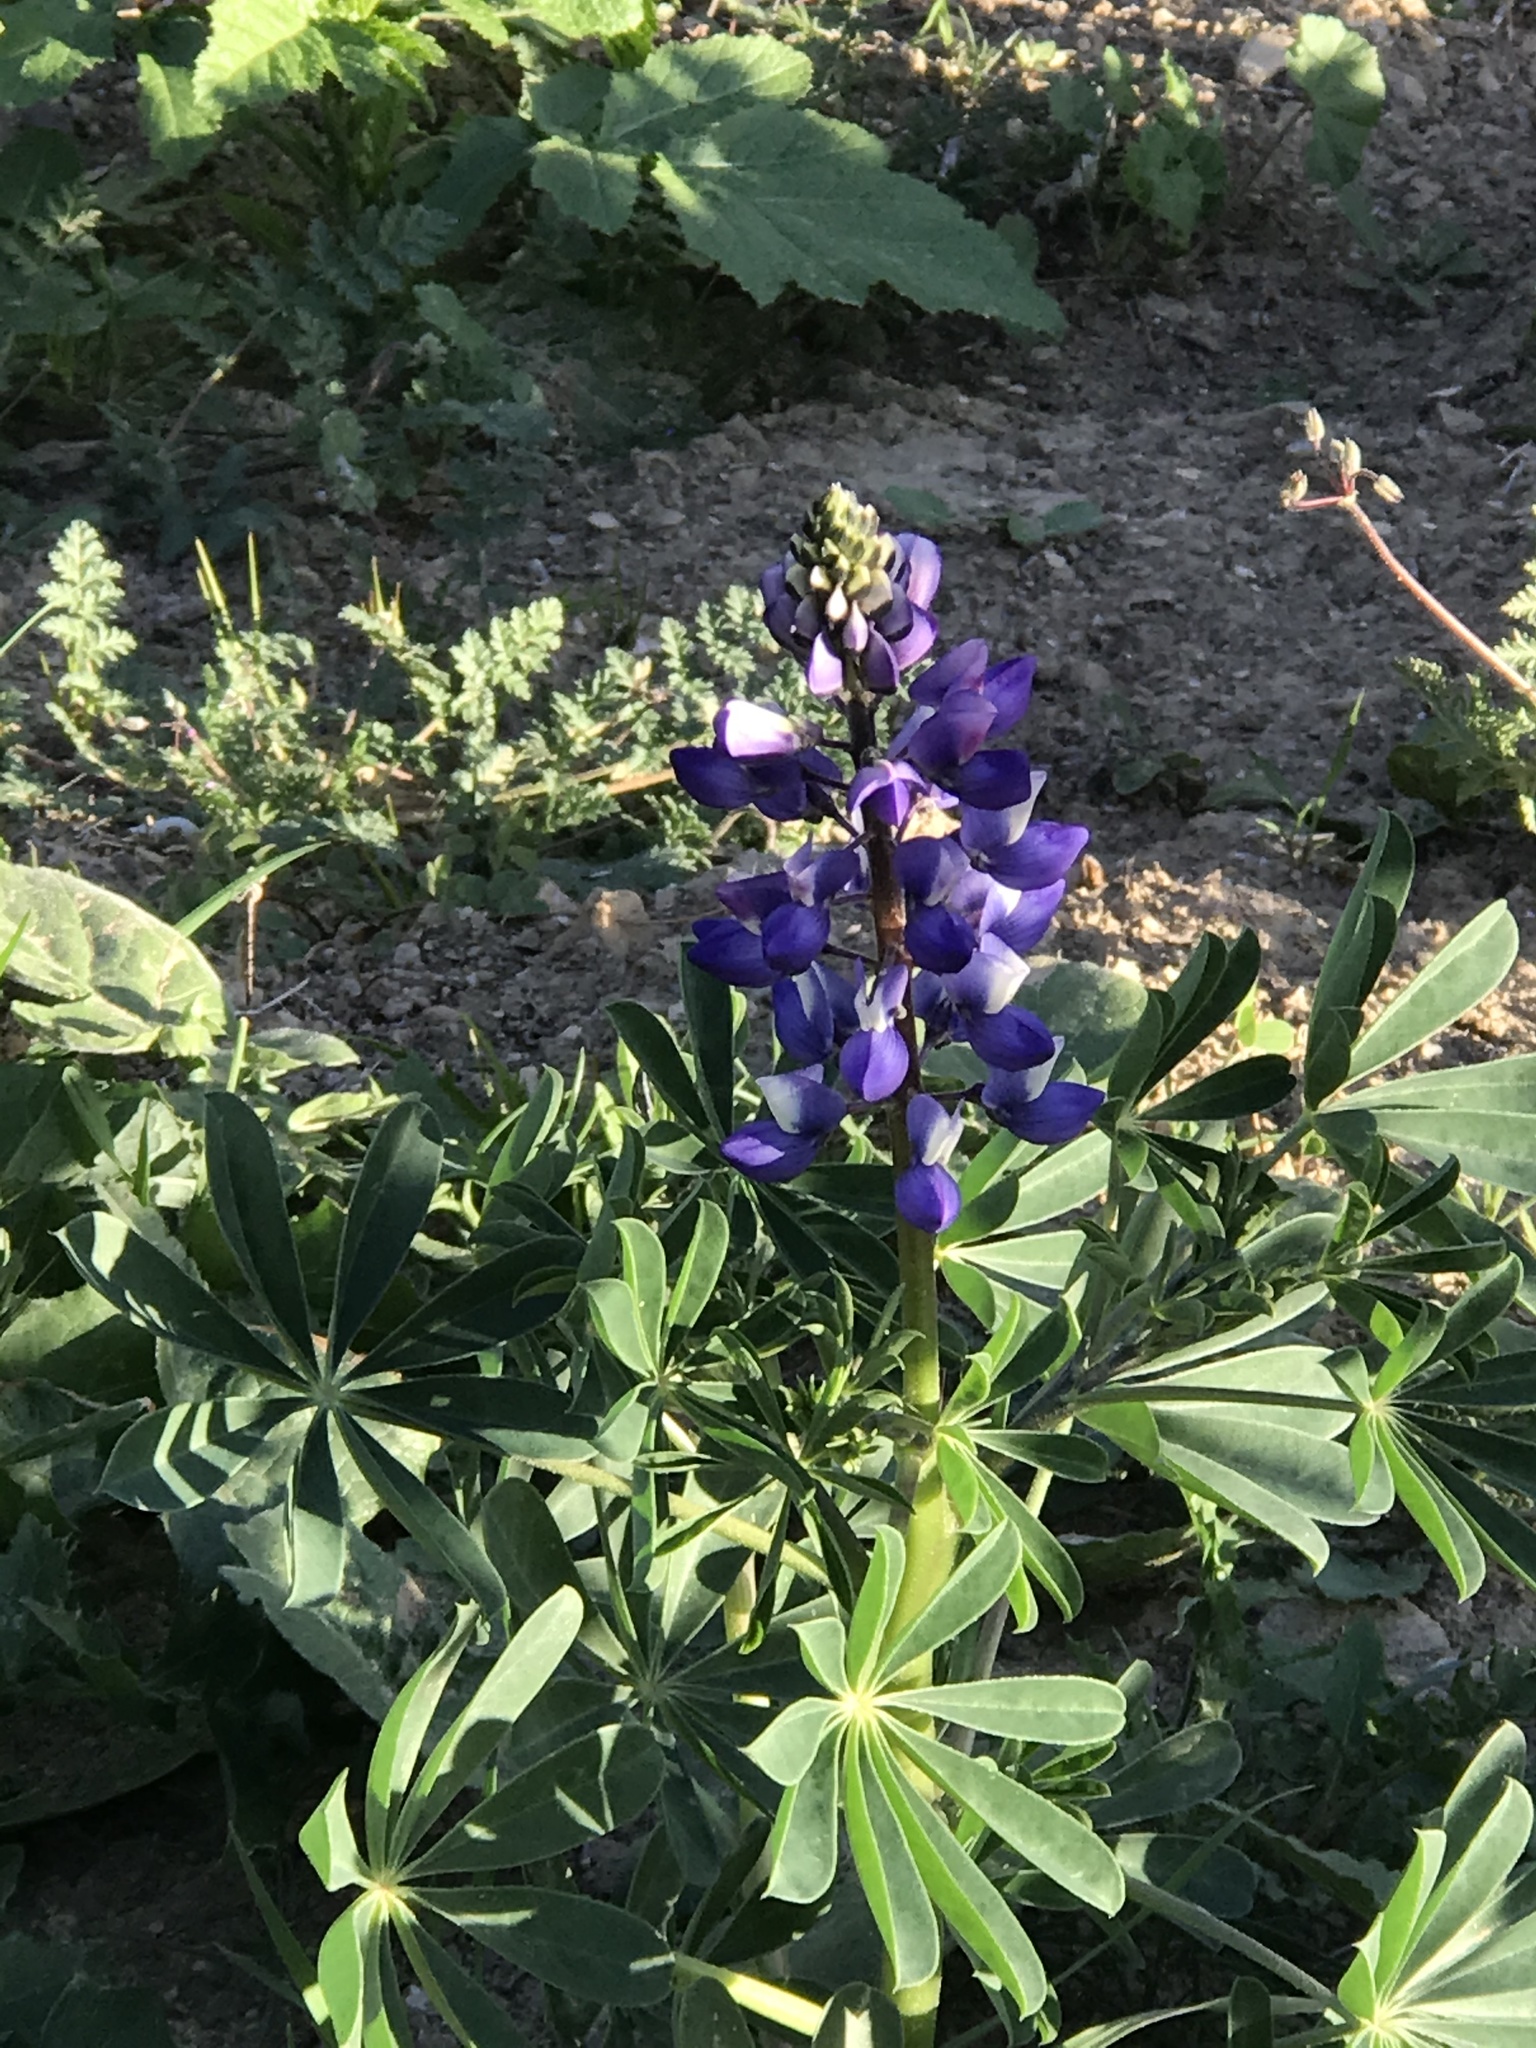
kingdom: Plantae
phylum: Tracheophyta
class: Magnoliopsida
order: Fabales
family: Fabaceae
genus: Lupinus
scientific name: Lupinus succulentus
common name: Arroyo lupine
